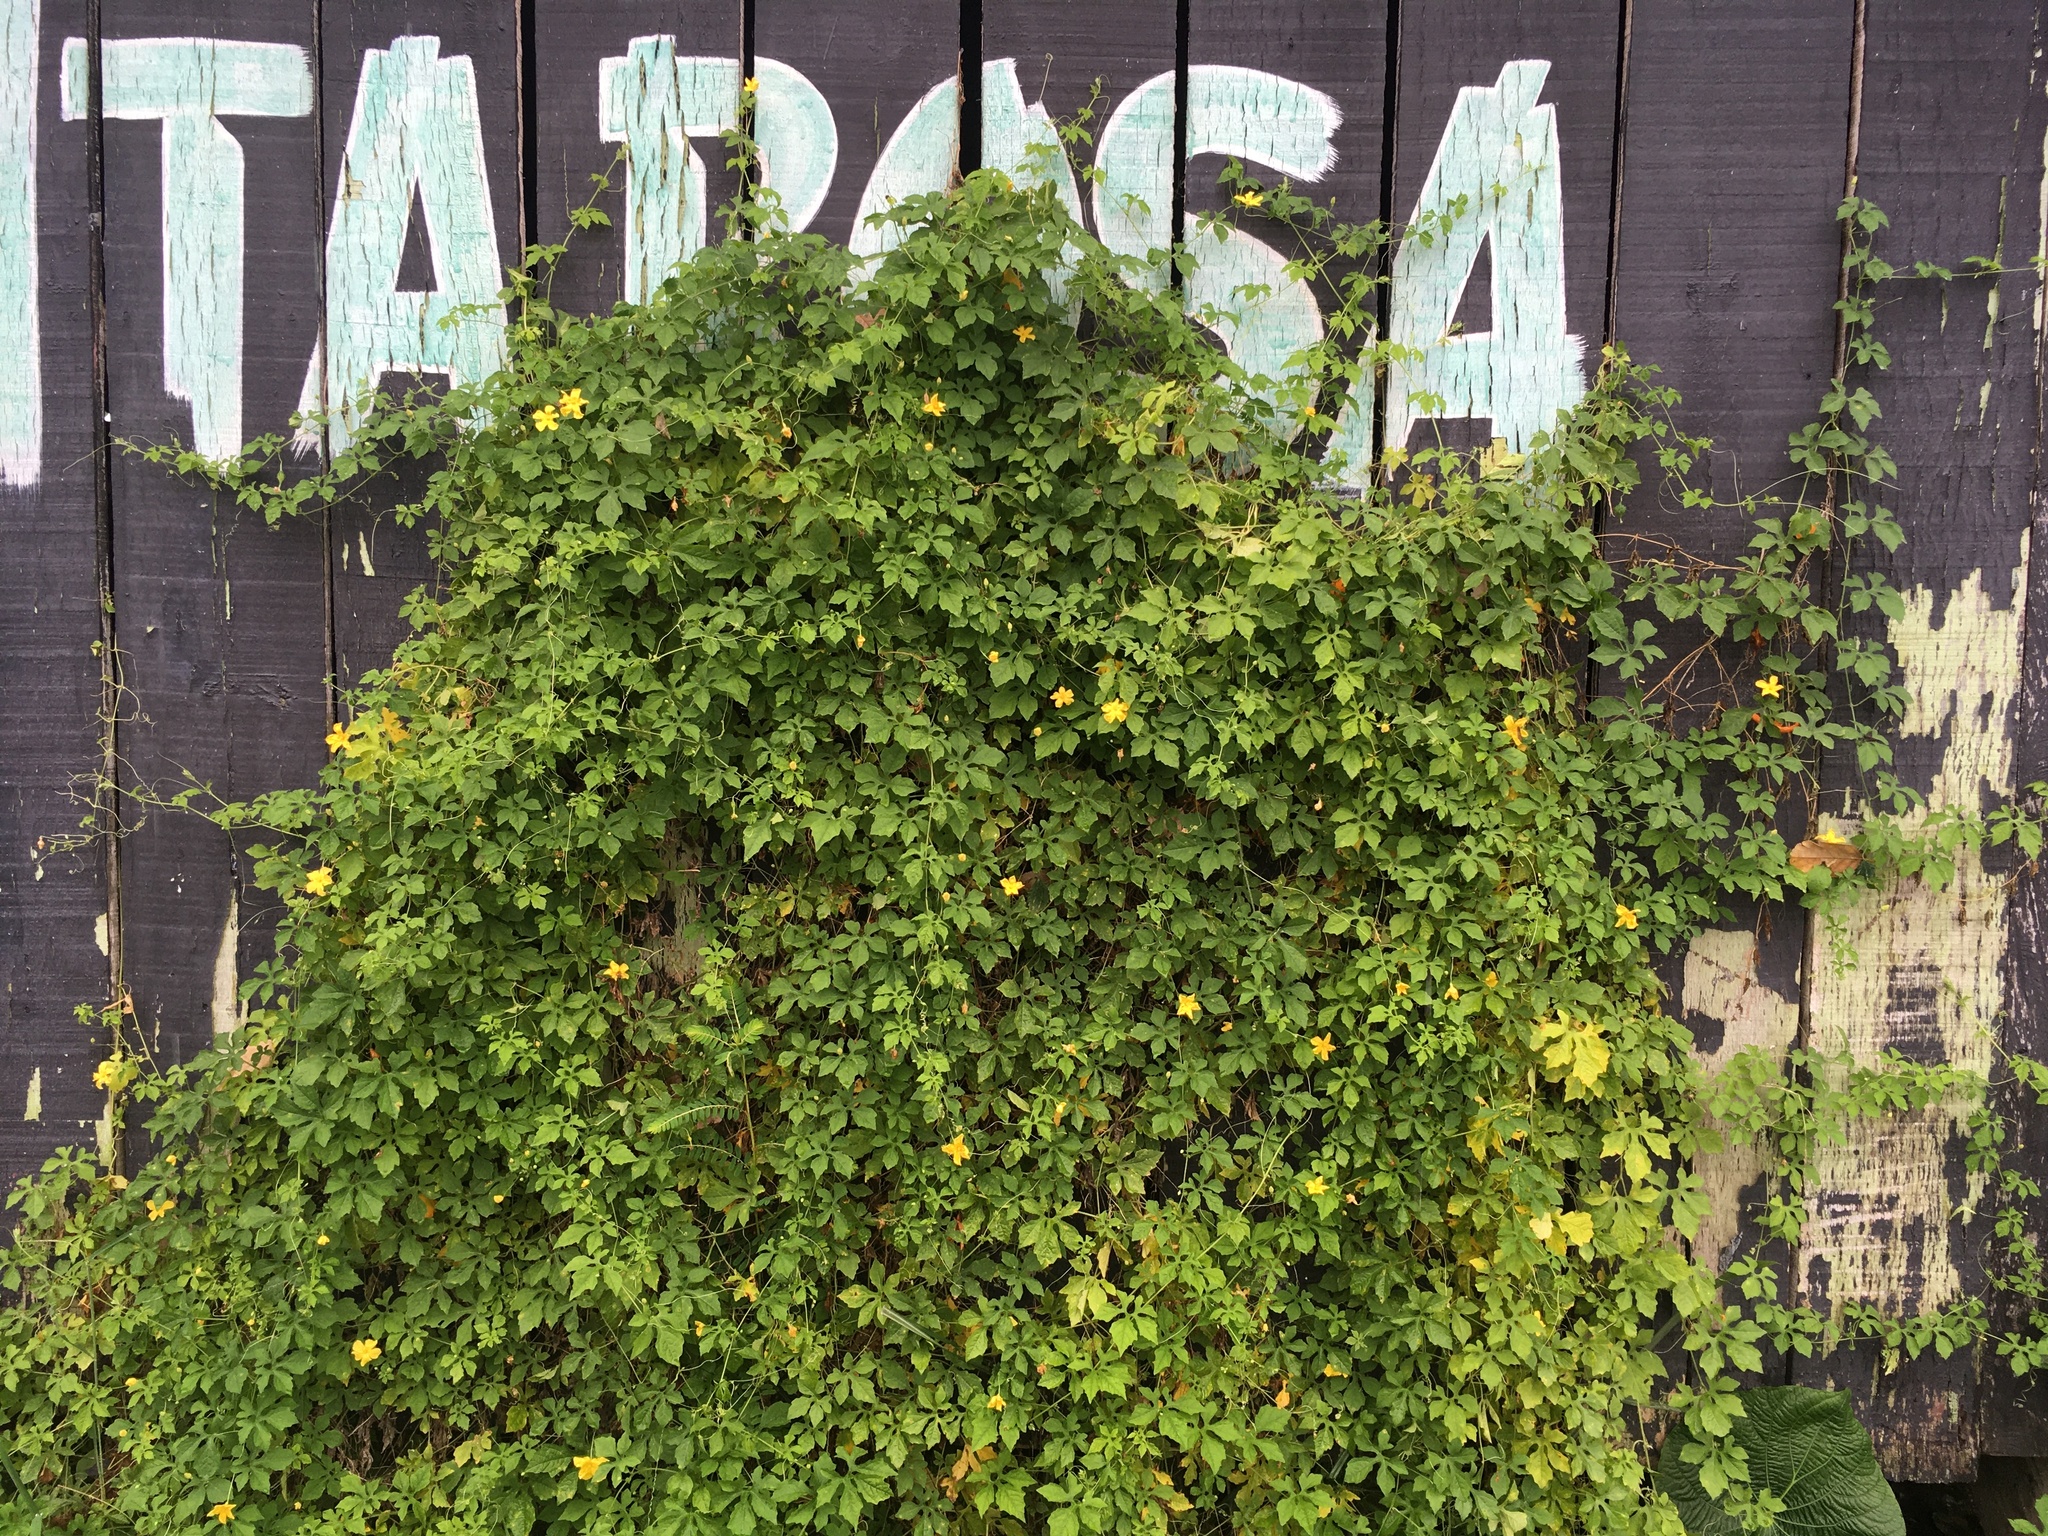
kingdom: Plantae
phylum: Tracheophyta
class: Magnoliopsida
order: Cucurbitales
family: Cucurbitaceae
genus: Momordica
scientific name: Momordica charantia
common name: Balsampear
